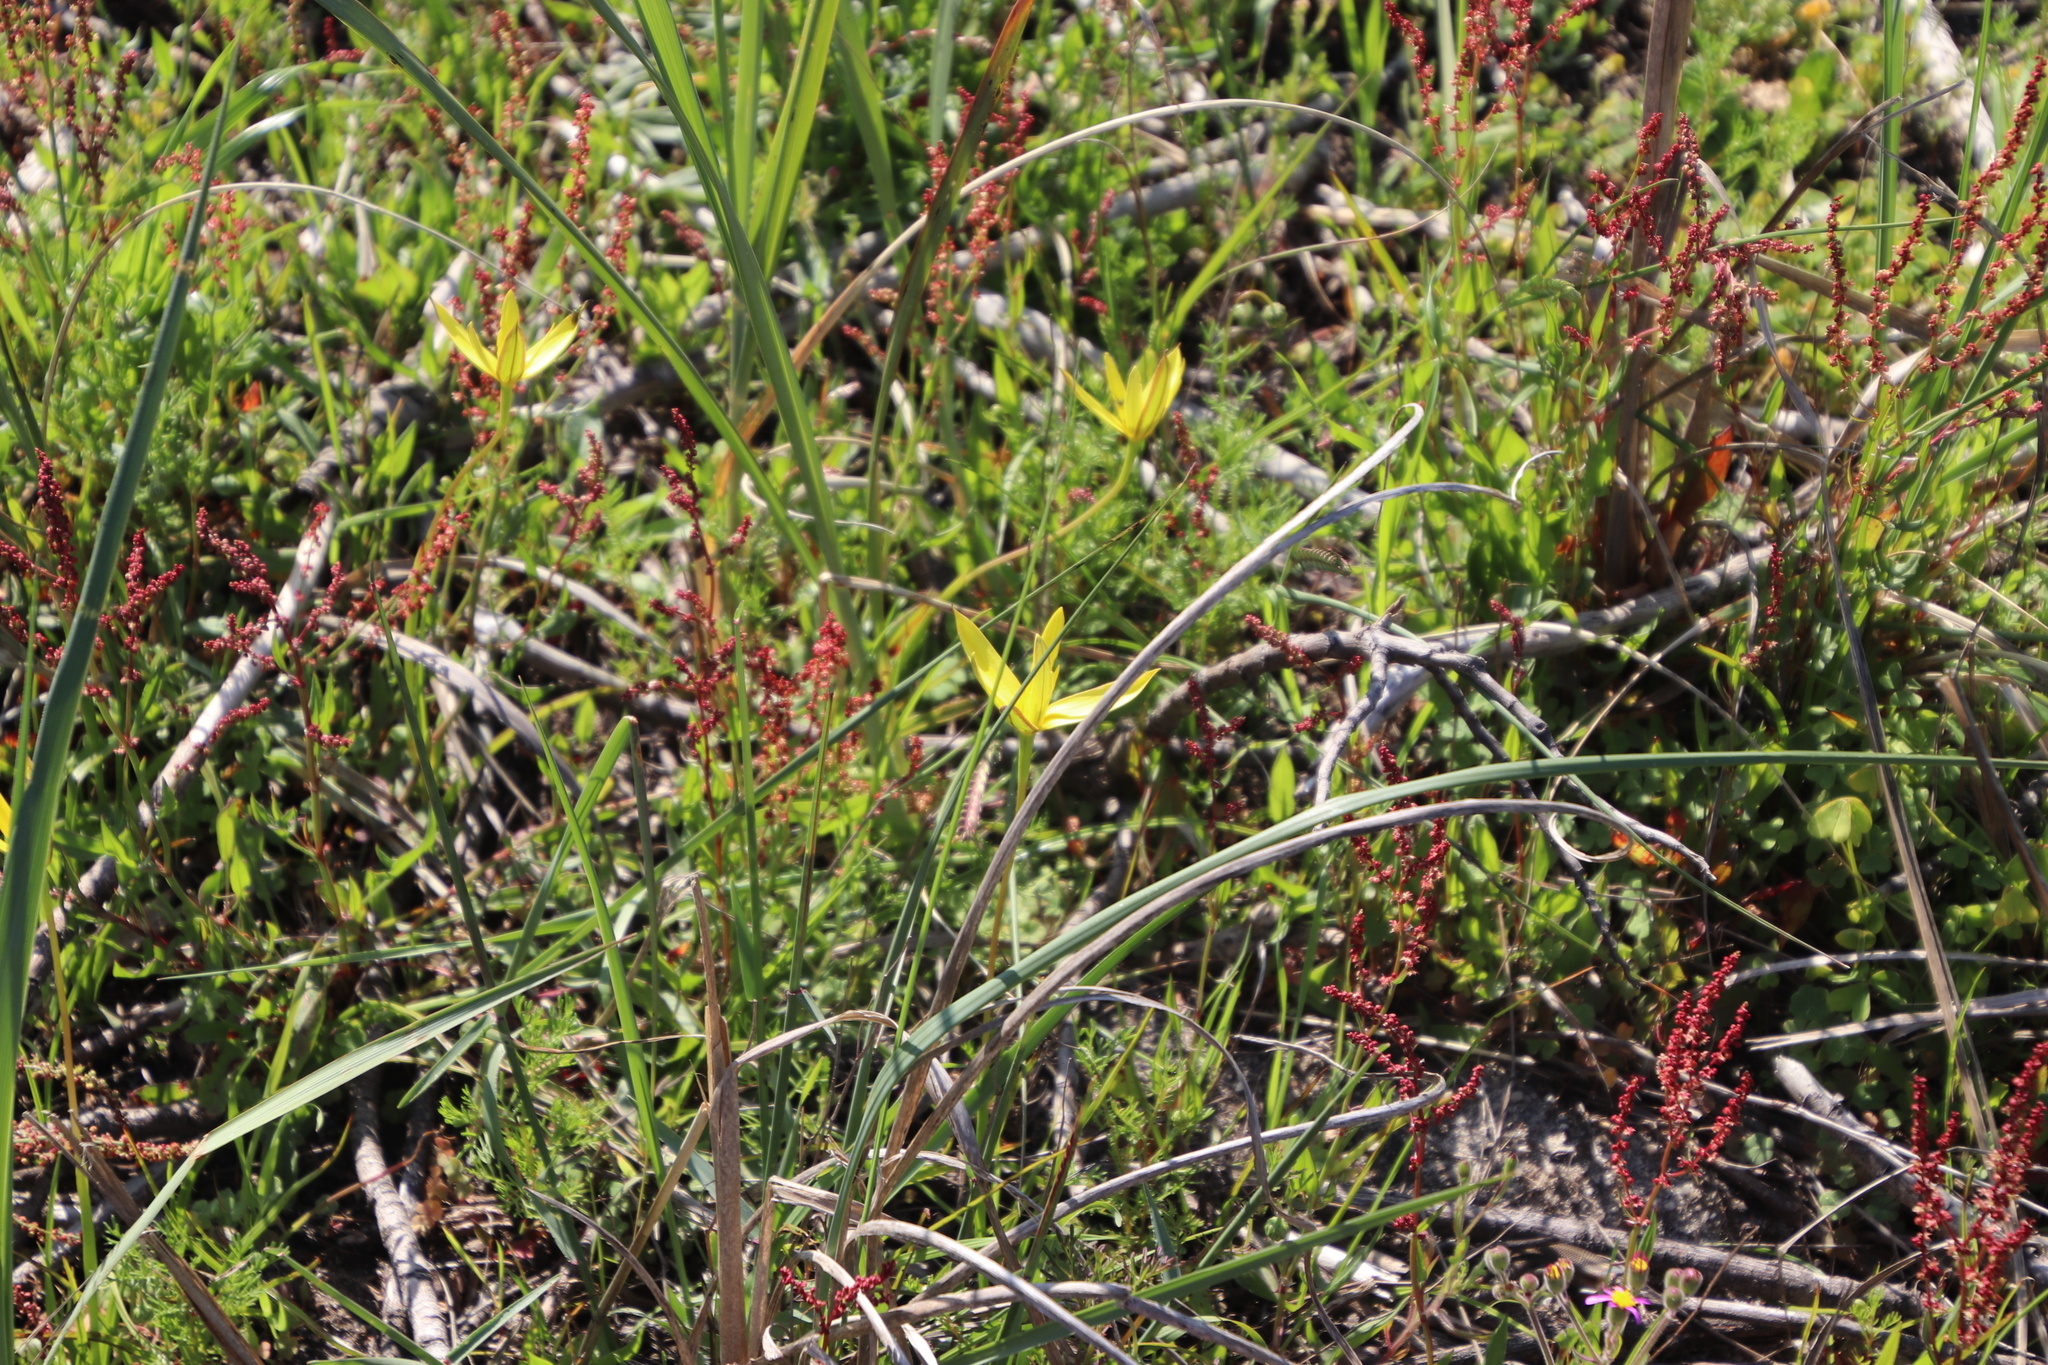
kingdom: Plantae
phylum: Tracheophyta
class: Liliopsida
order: Asparagales
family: Hypoxidaceae
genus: Pauridia
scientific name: Pauridia capensis
